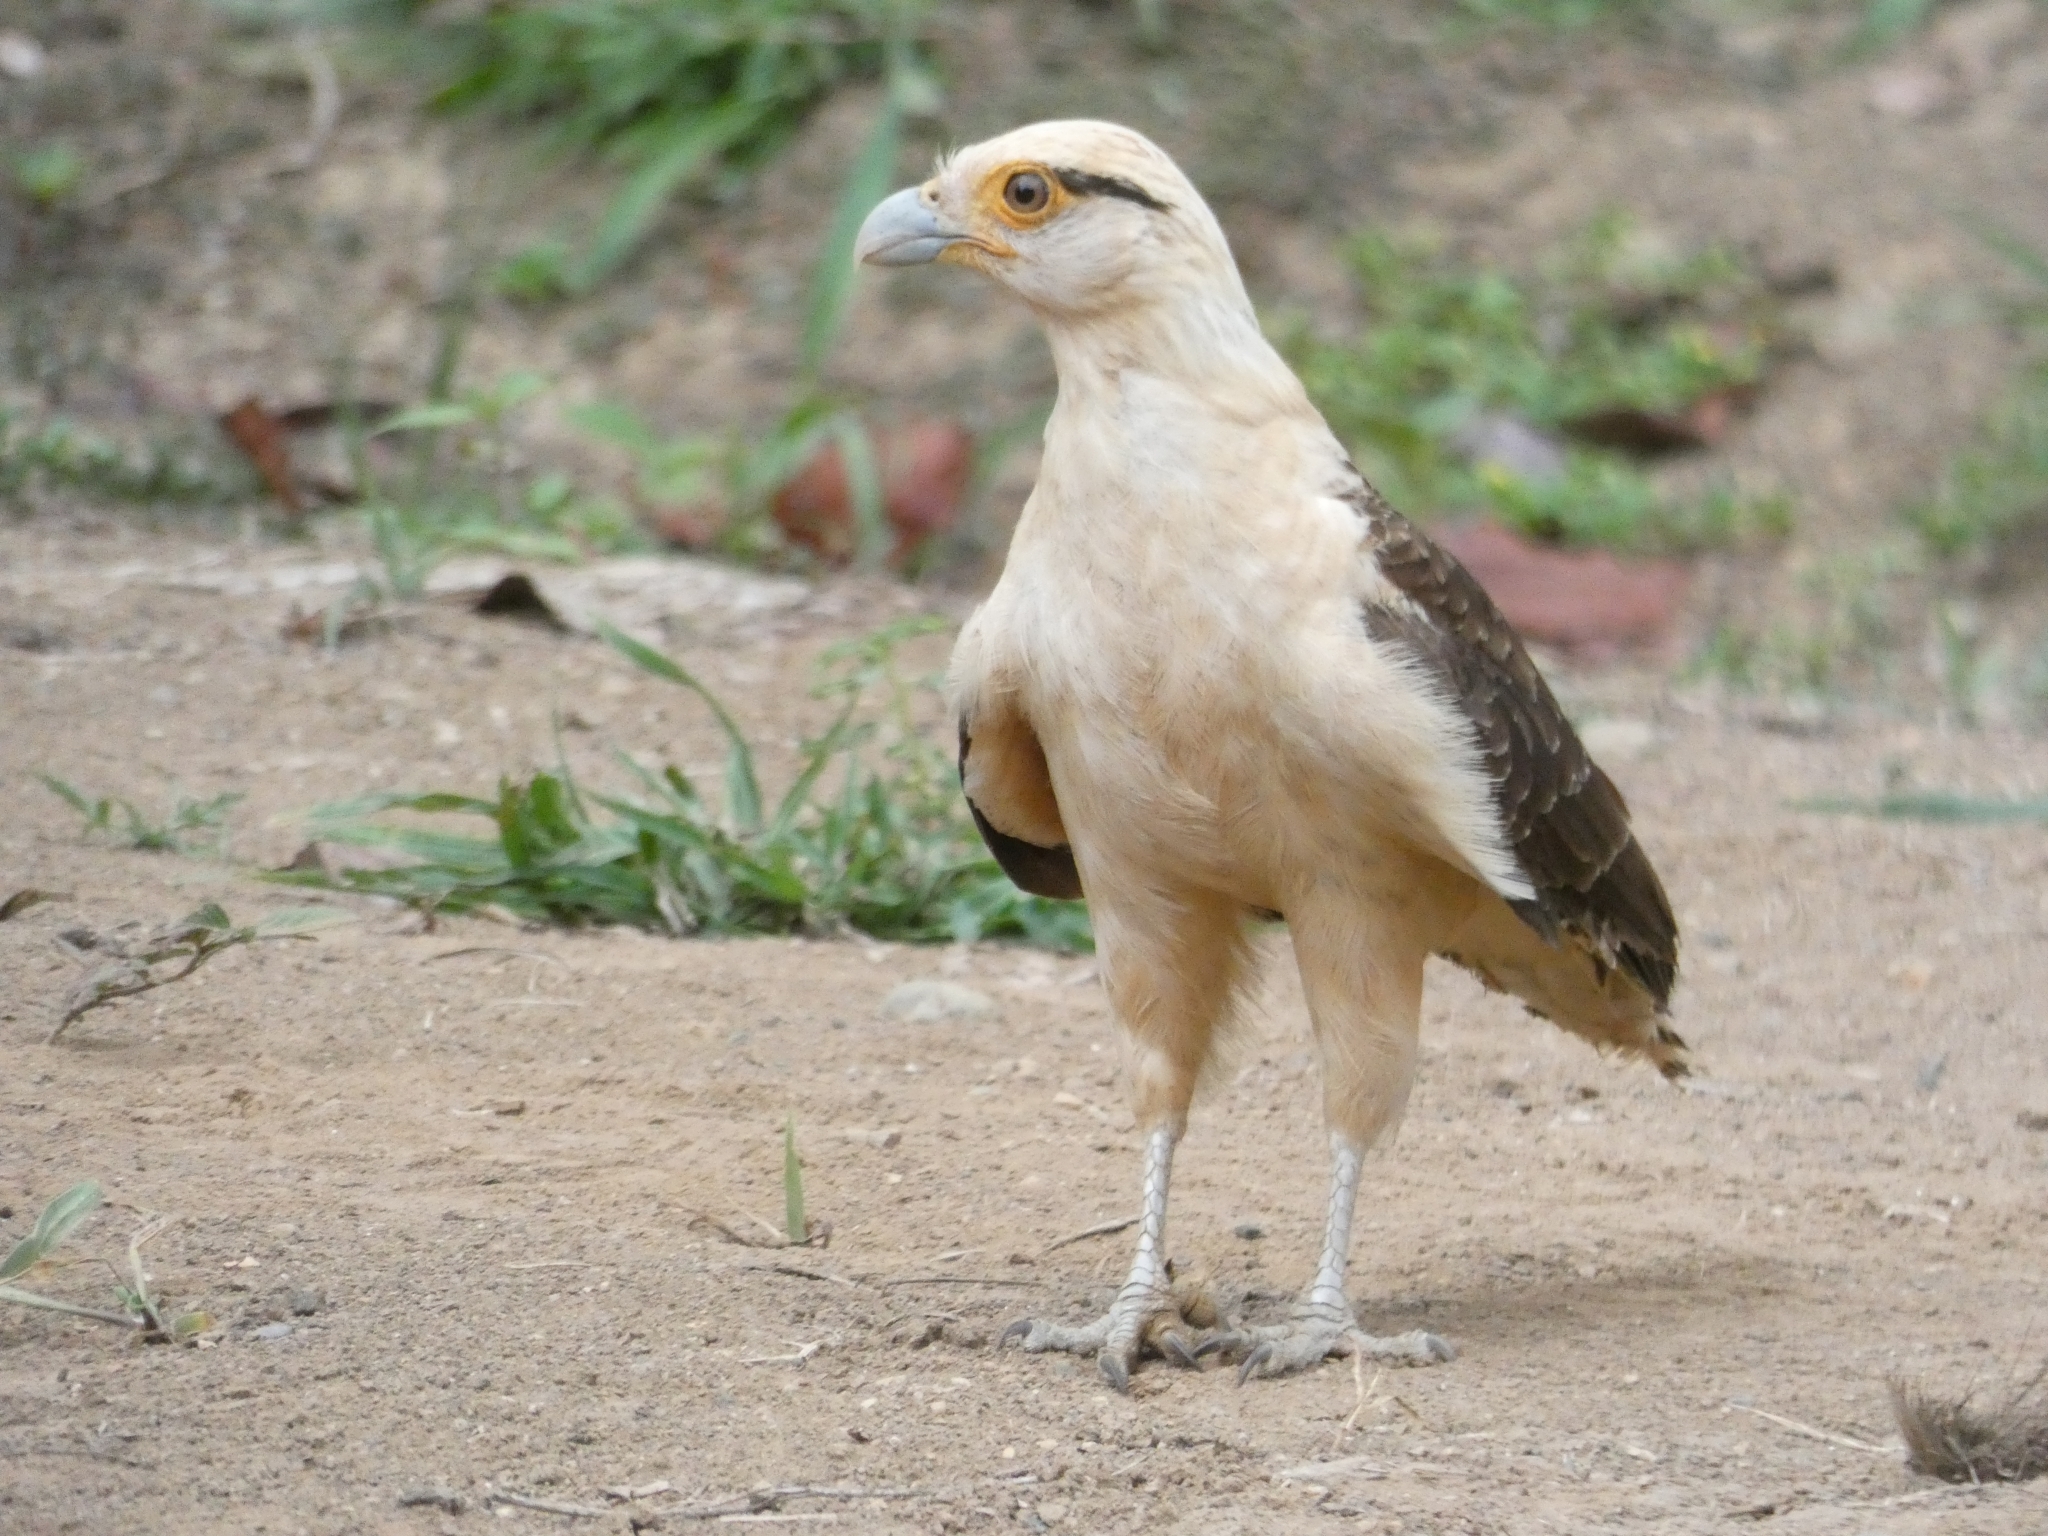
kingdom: Animalia
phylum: Chordata
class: Aves
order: Falconiformes
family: Falconidae
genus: Daptrius
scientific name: Daptrius
